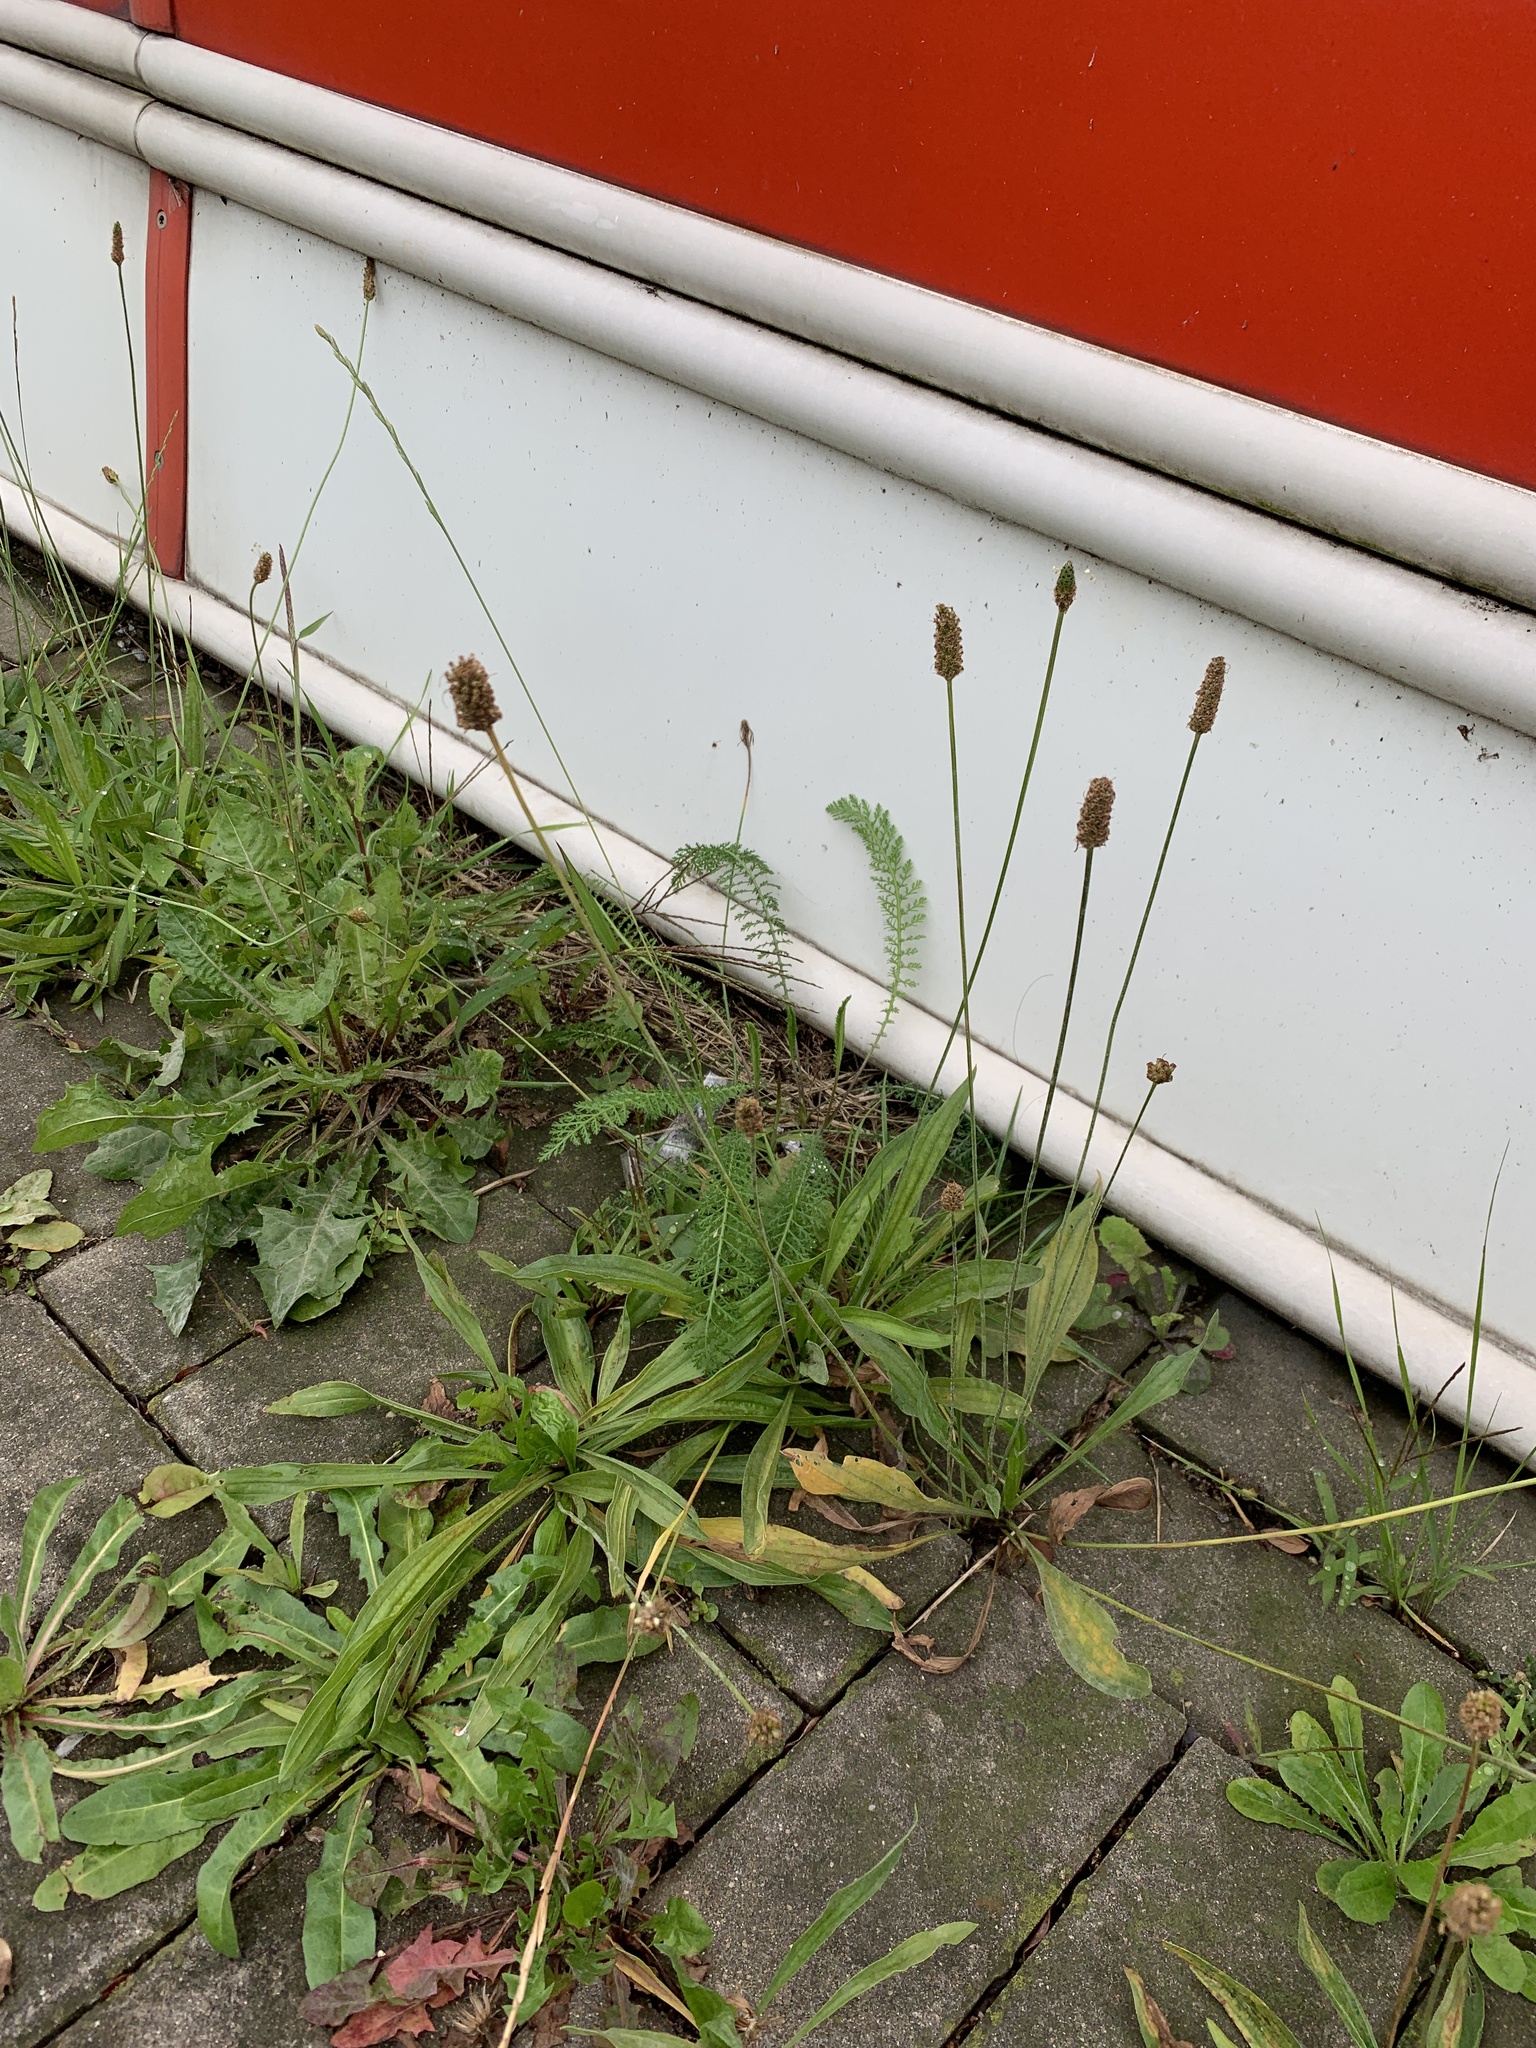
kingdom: Plantae
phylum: Tracheophyta
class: Magnoliopsida
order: Lamiales
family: Plantaginaceae
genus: Plantago
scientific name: Plantago lanceolata
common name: Ribwort plantain
